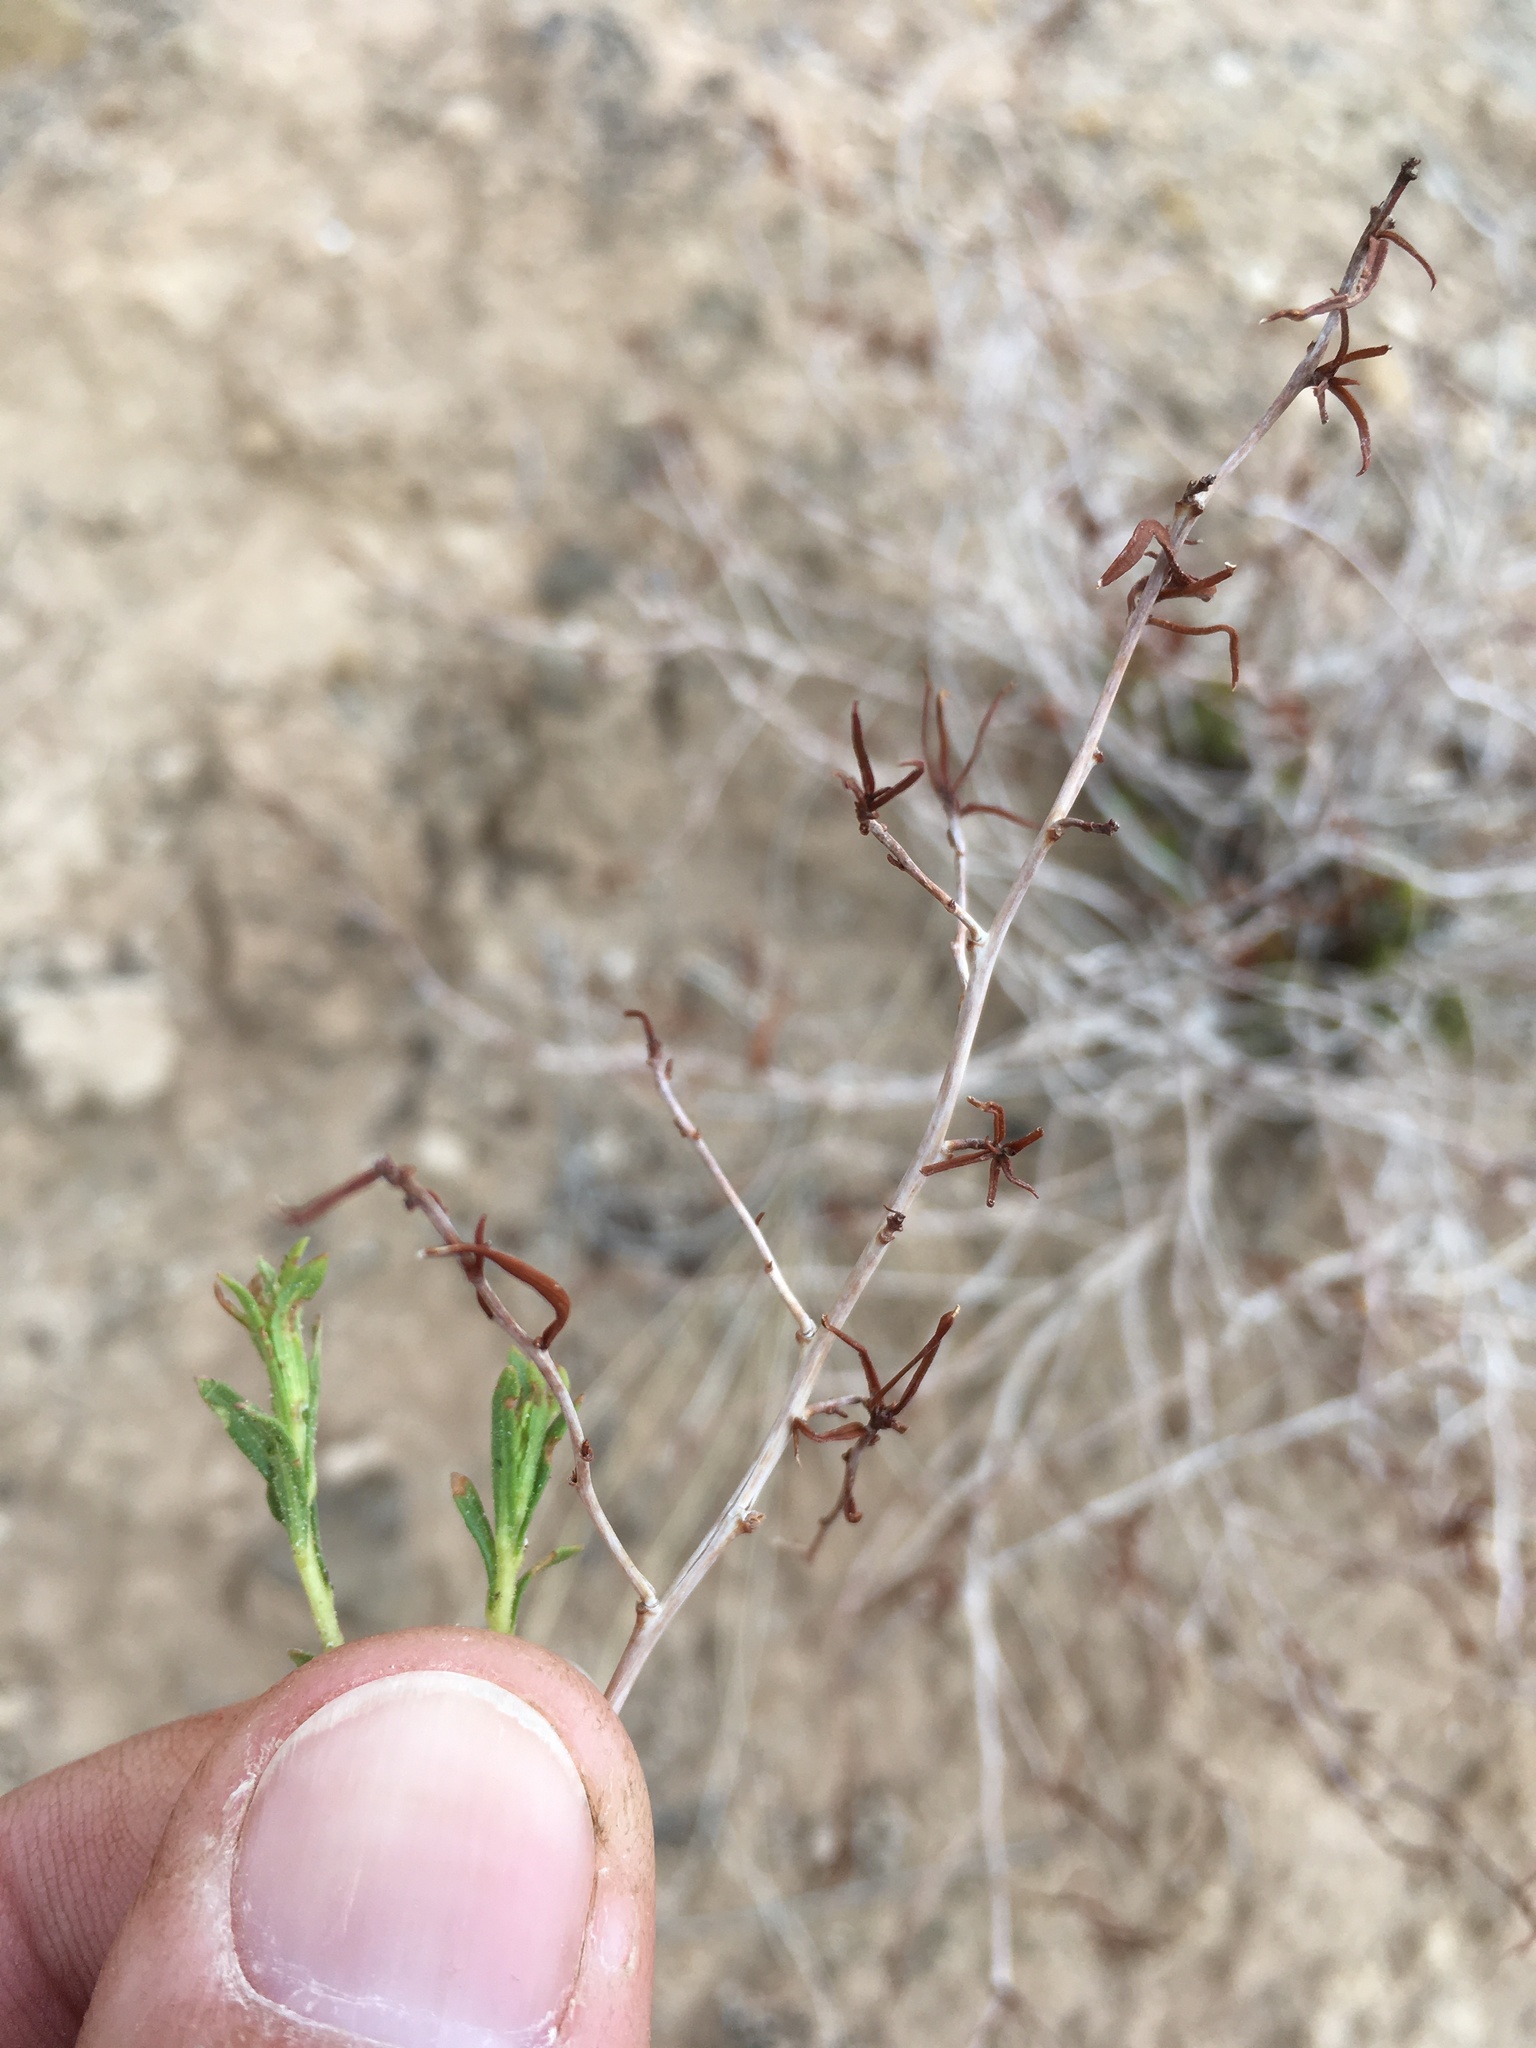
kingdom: Plantae
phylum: Tracheophyta
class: Magnoliopsida
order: Myrtales
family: Onagraceae
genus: Oenothera
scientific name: Oenothera hartwegii
